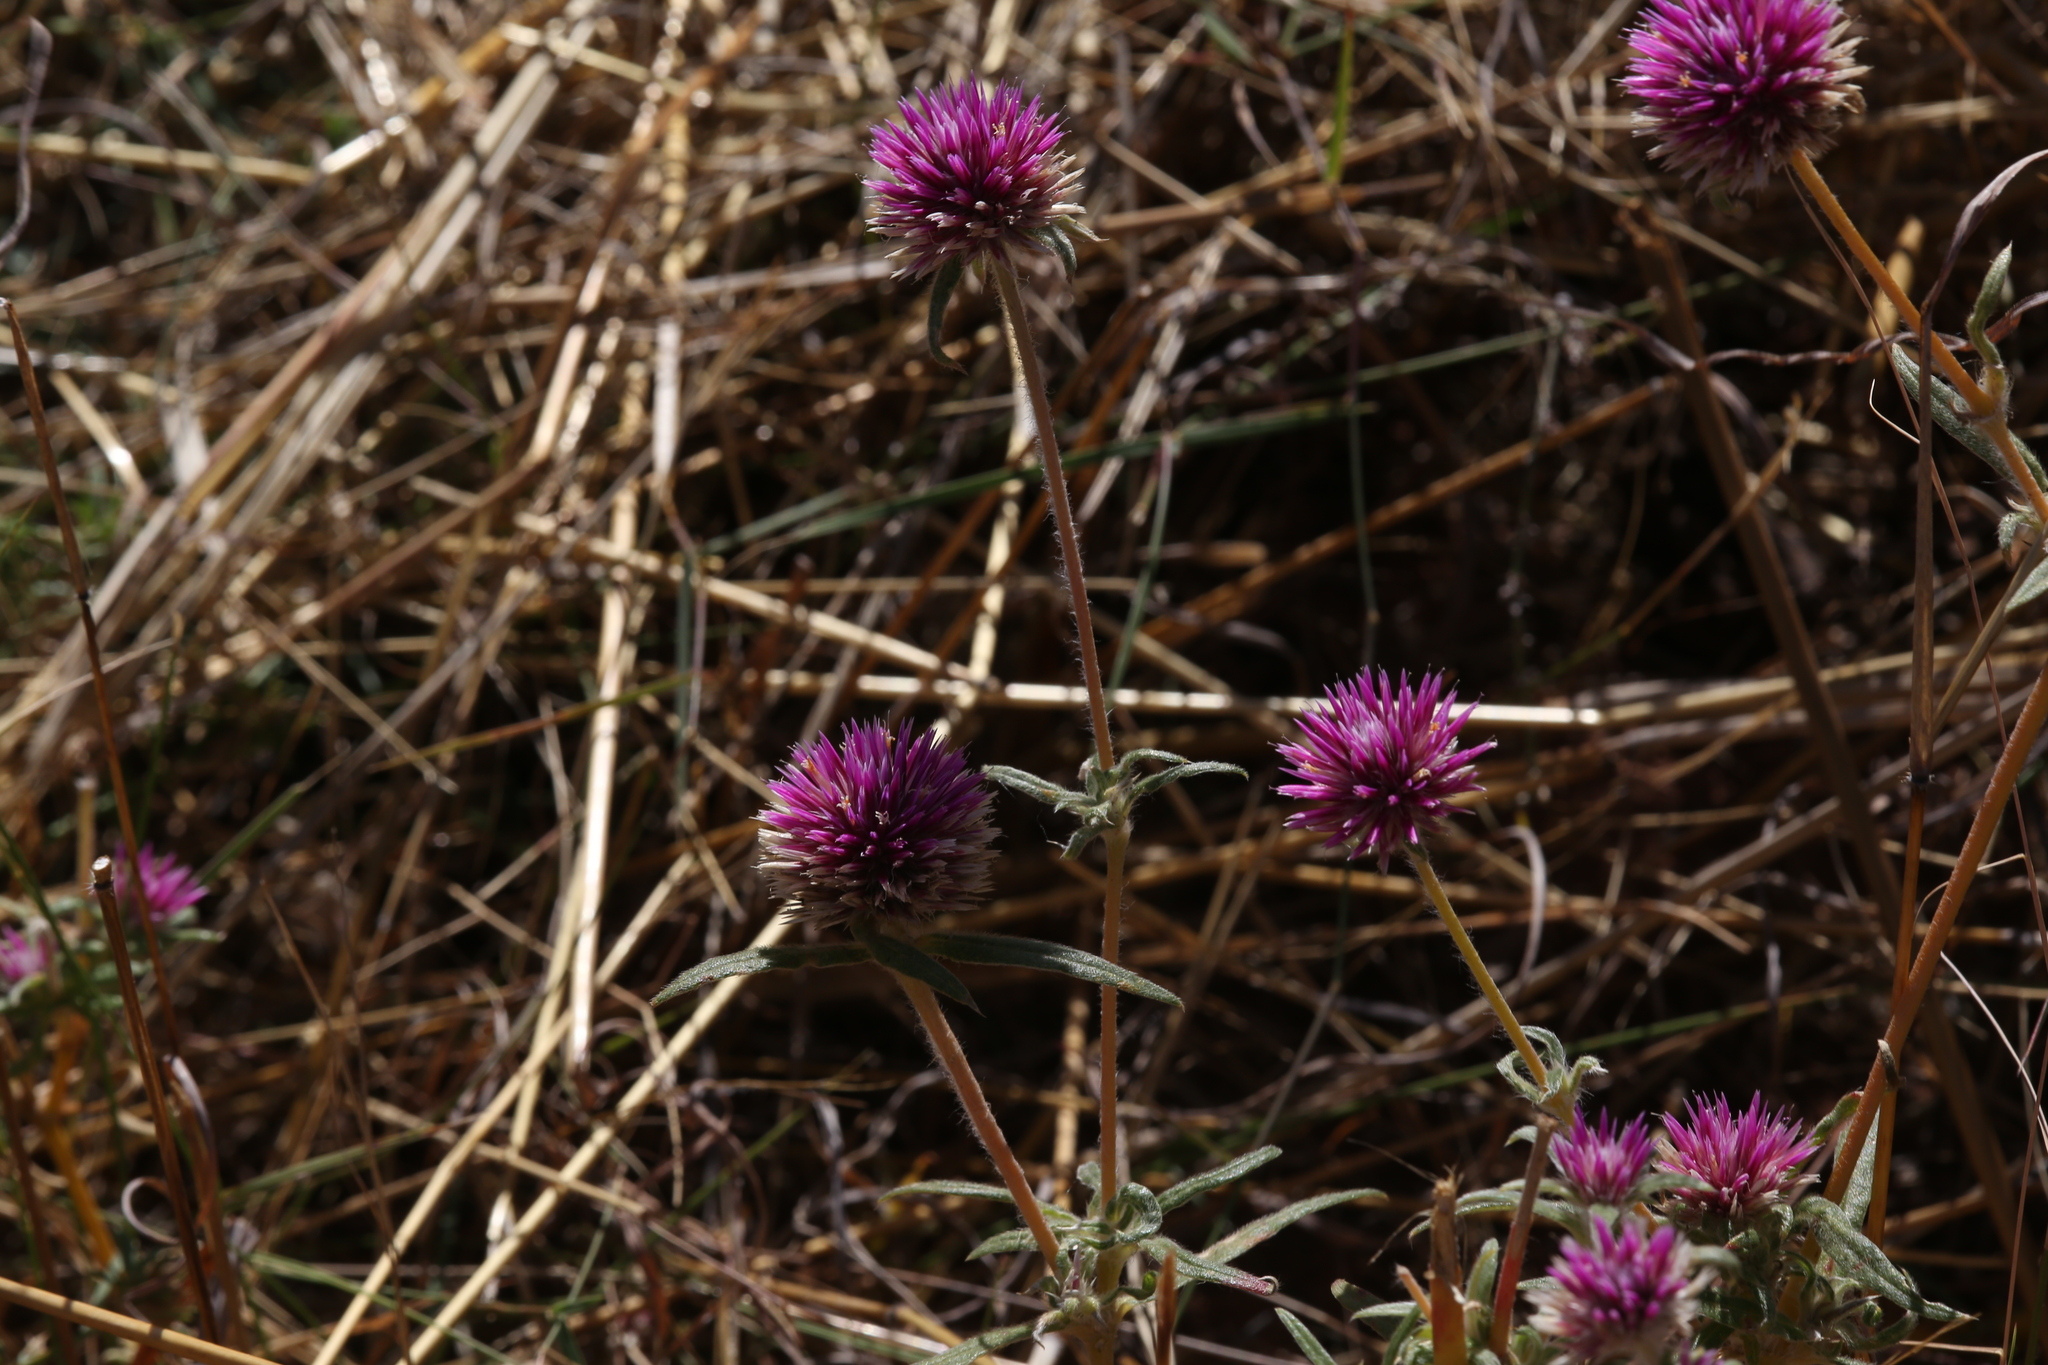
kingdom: Plantae
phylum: Tracheophyta
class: Magnoliopsida
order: Caryophyllales
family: Amaranthaceae
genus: Gomphrena
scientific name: Gomphrena canescens
